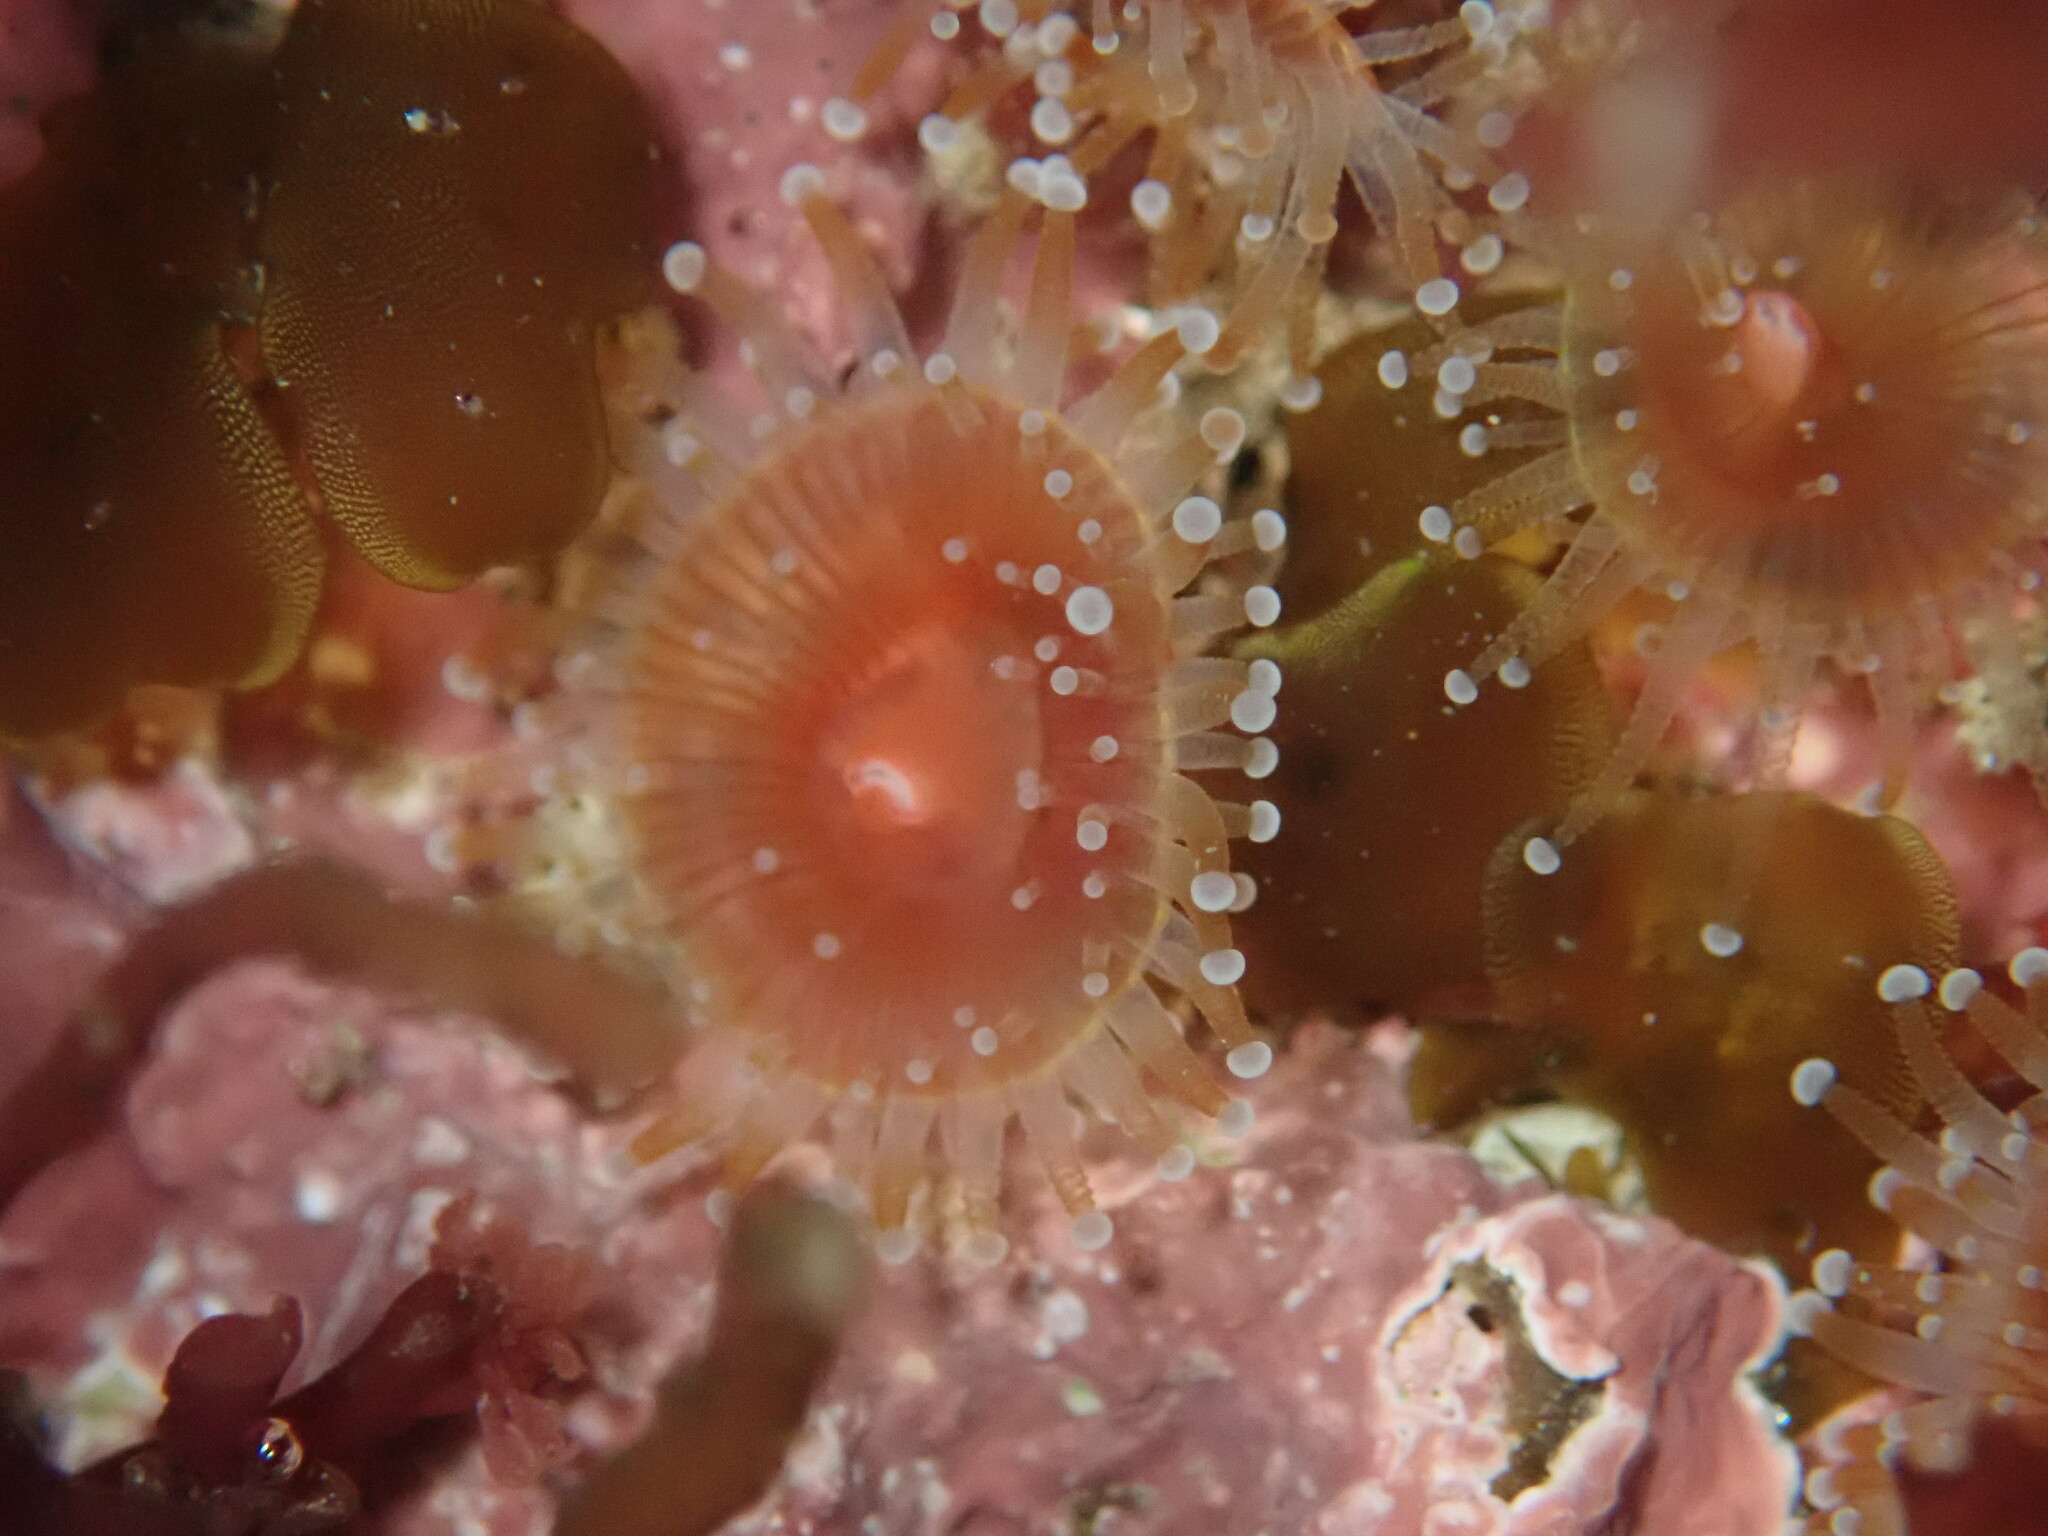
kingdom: Animalia
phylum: Cnidaria
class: Anthozoa
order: Corallimorpharia
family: Corallimorphidae
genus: Corynactis
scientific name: Corynactis californica
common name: Strawberry corallimorpharian
